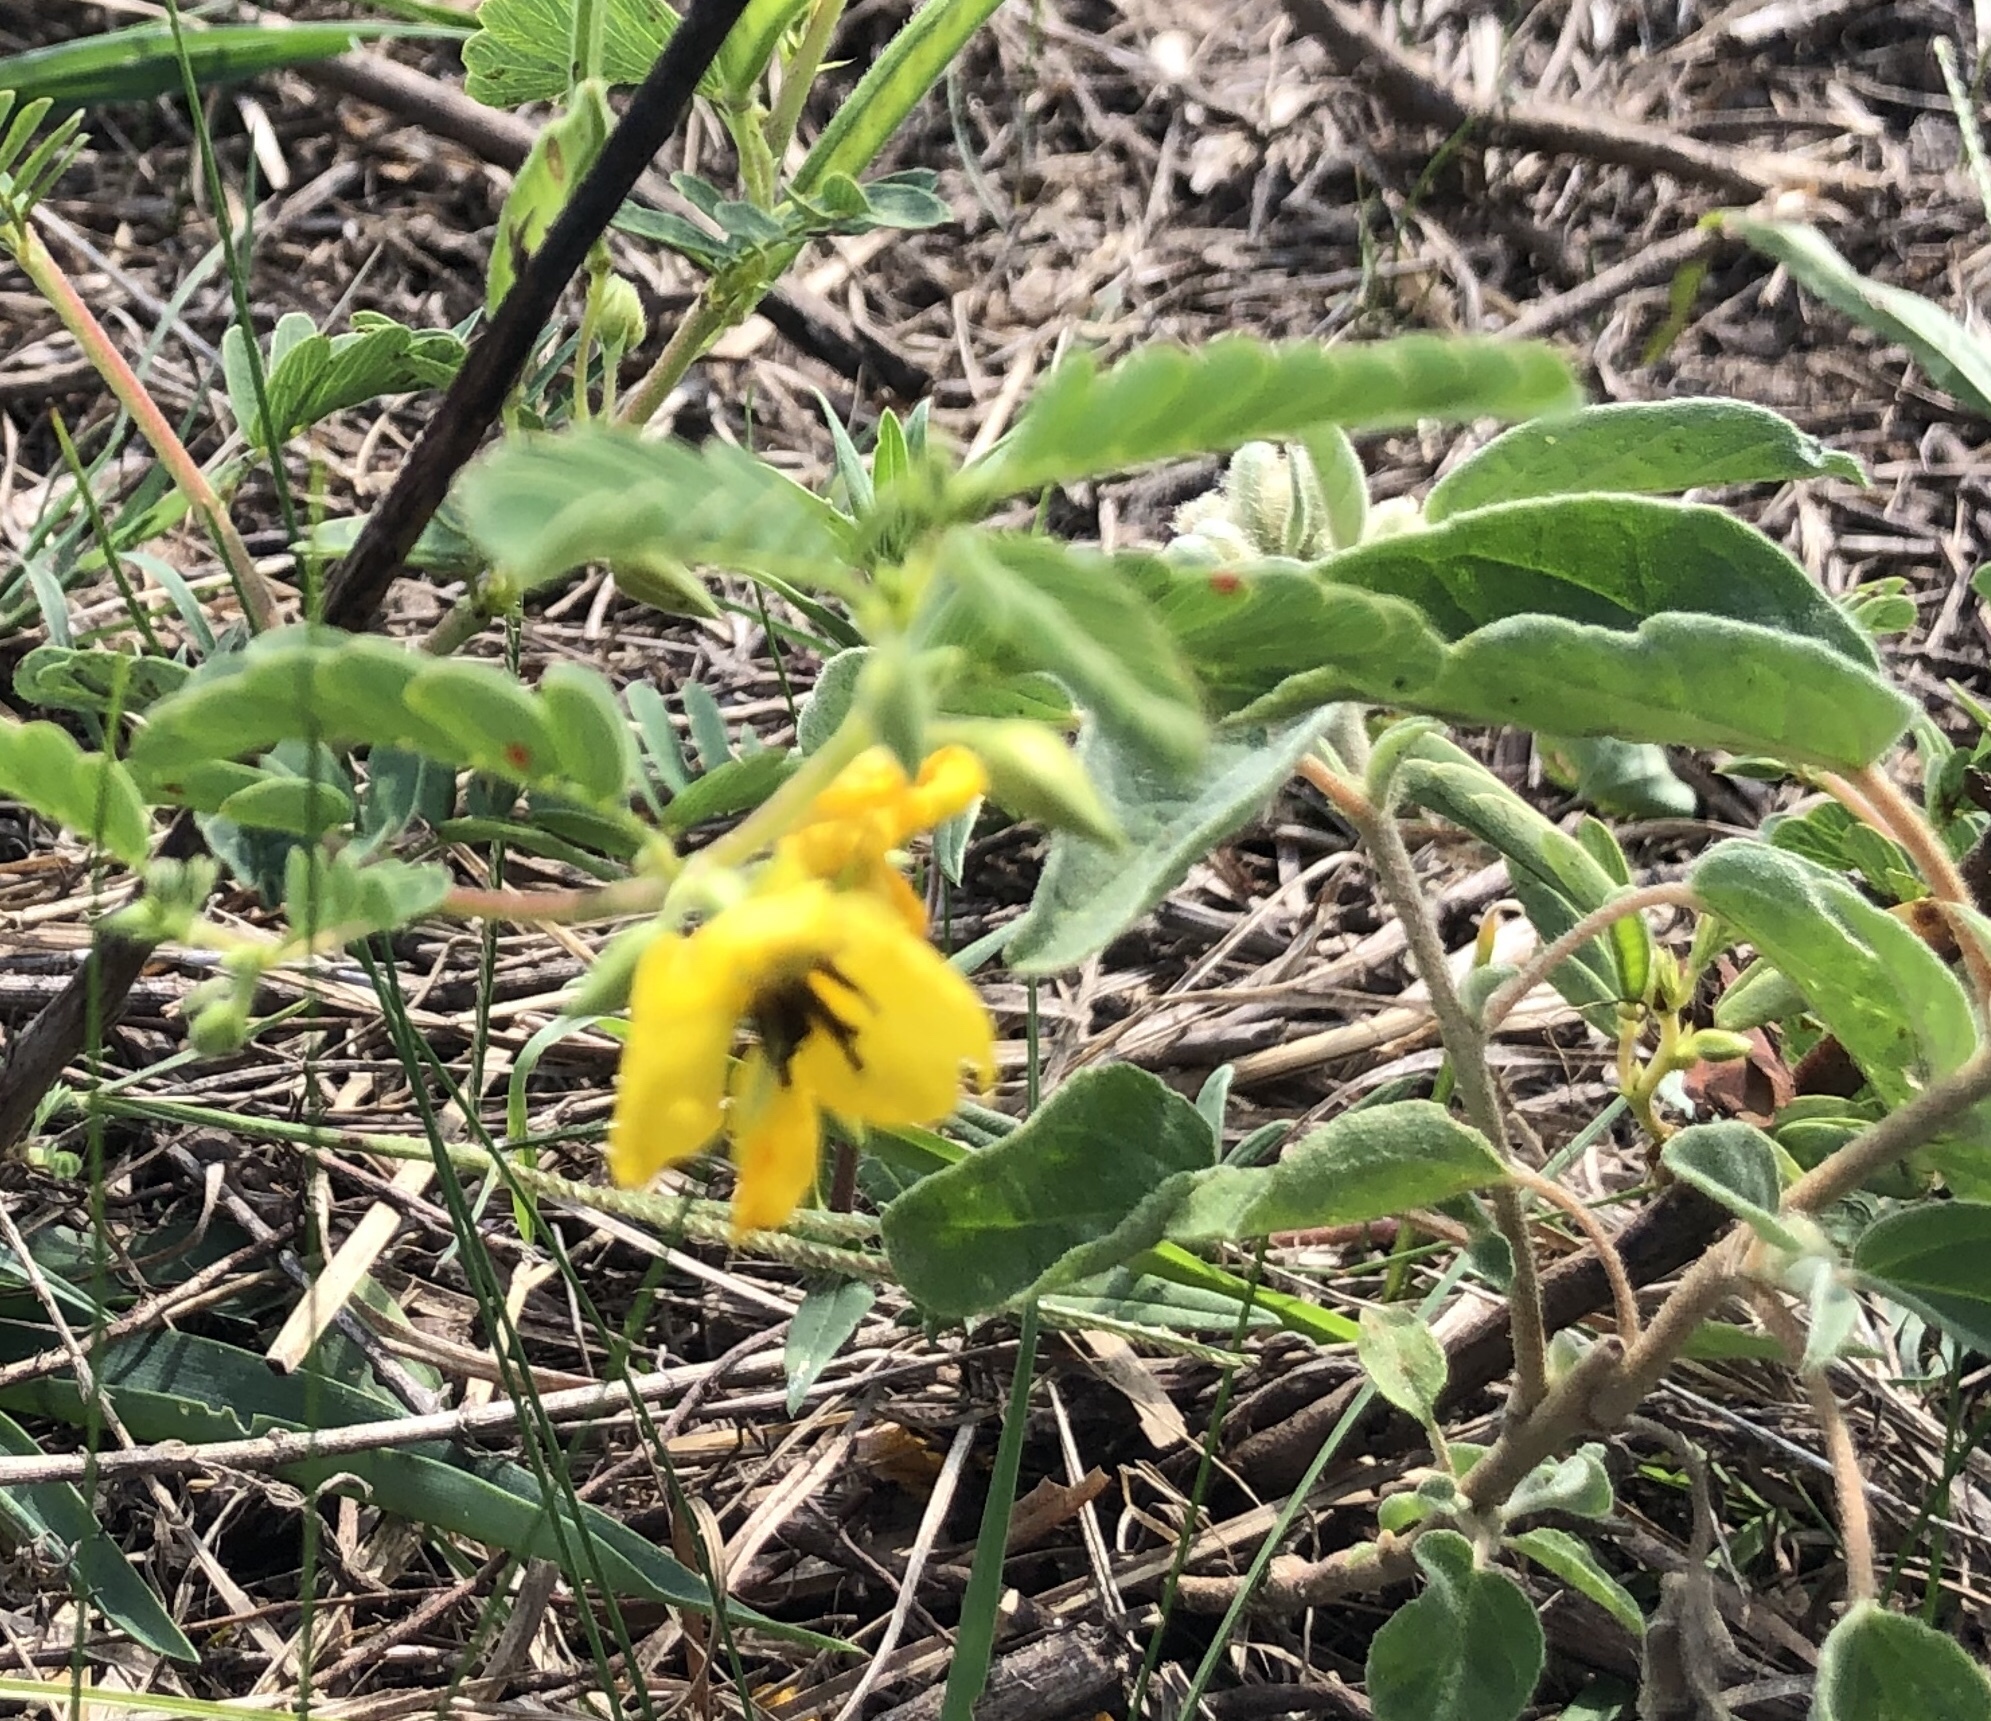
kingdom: Plantae
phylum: Tracheophyta
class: Magnoliopsida
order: Fabales
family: Fabaceae
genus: Chamaecrista
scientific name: Chamaecrista fasciculata
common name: Golden cassia
